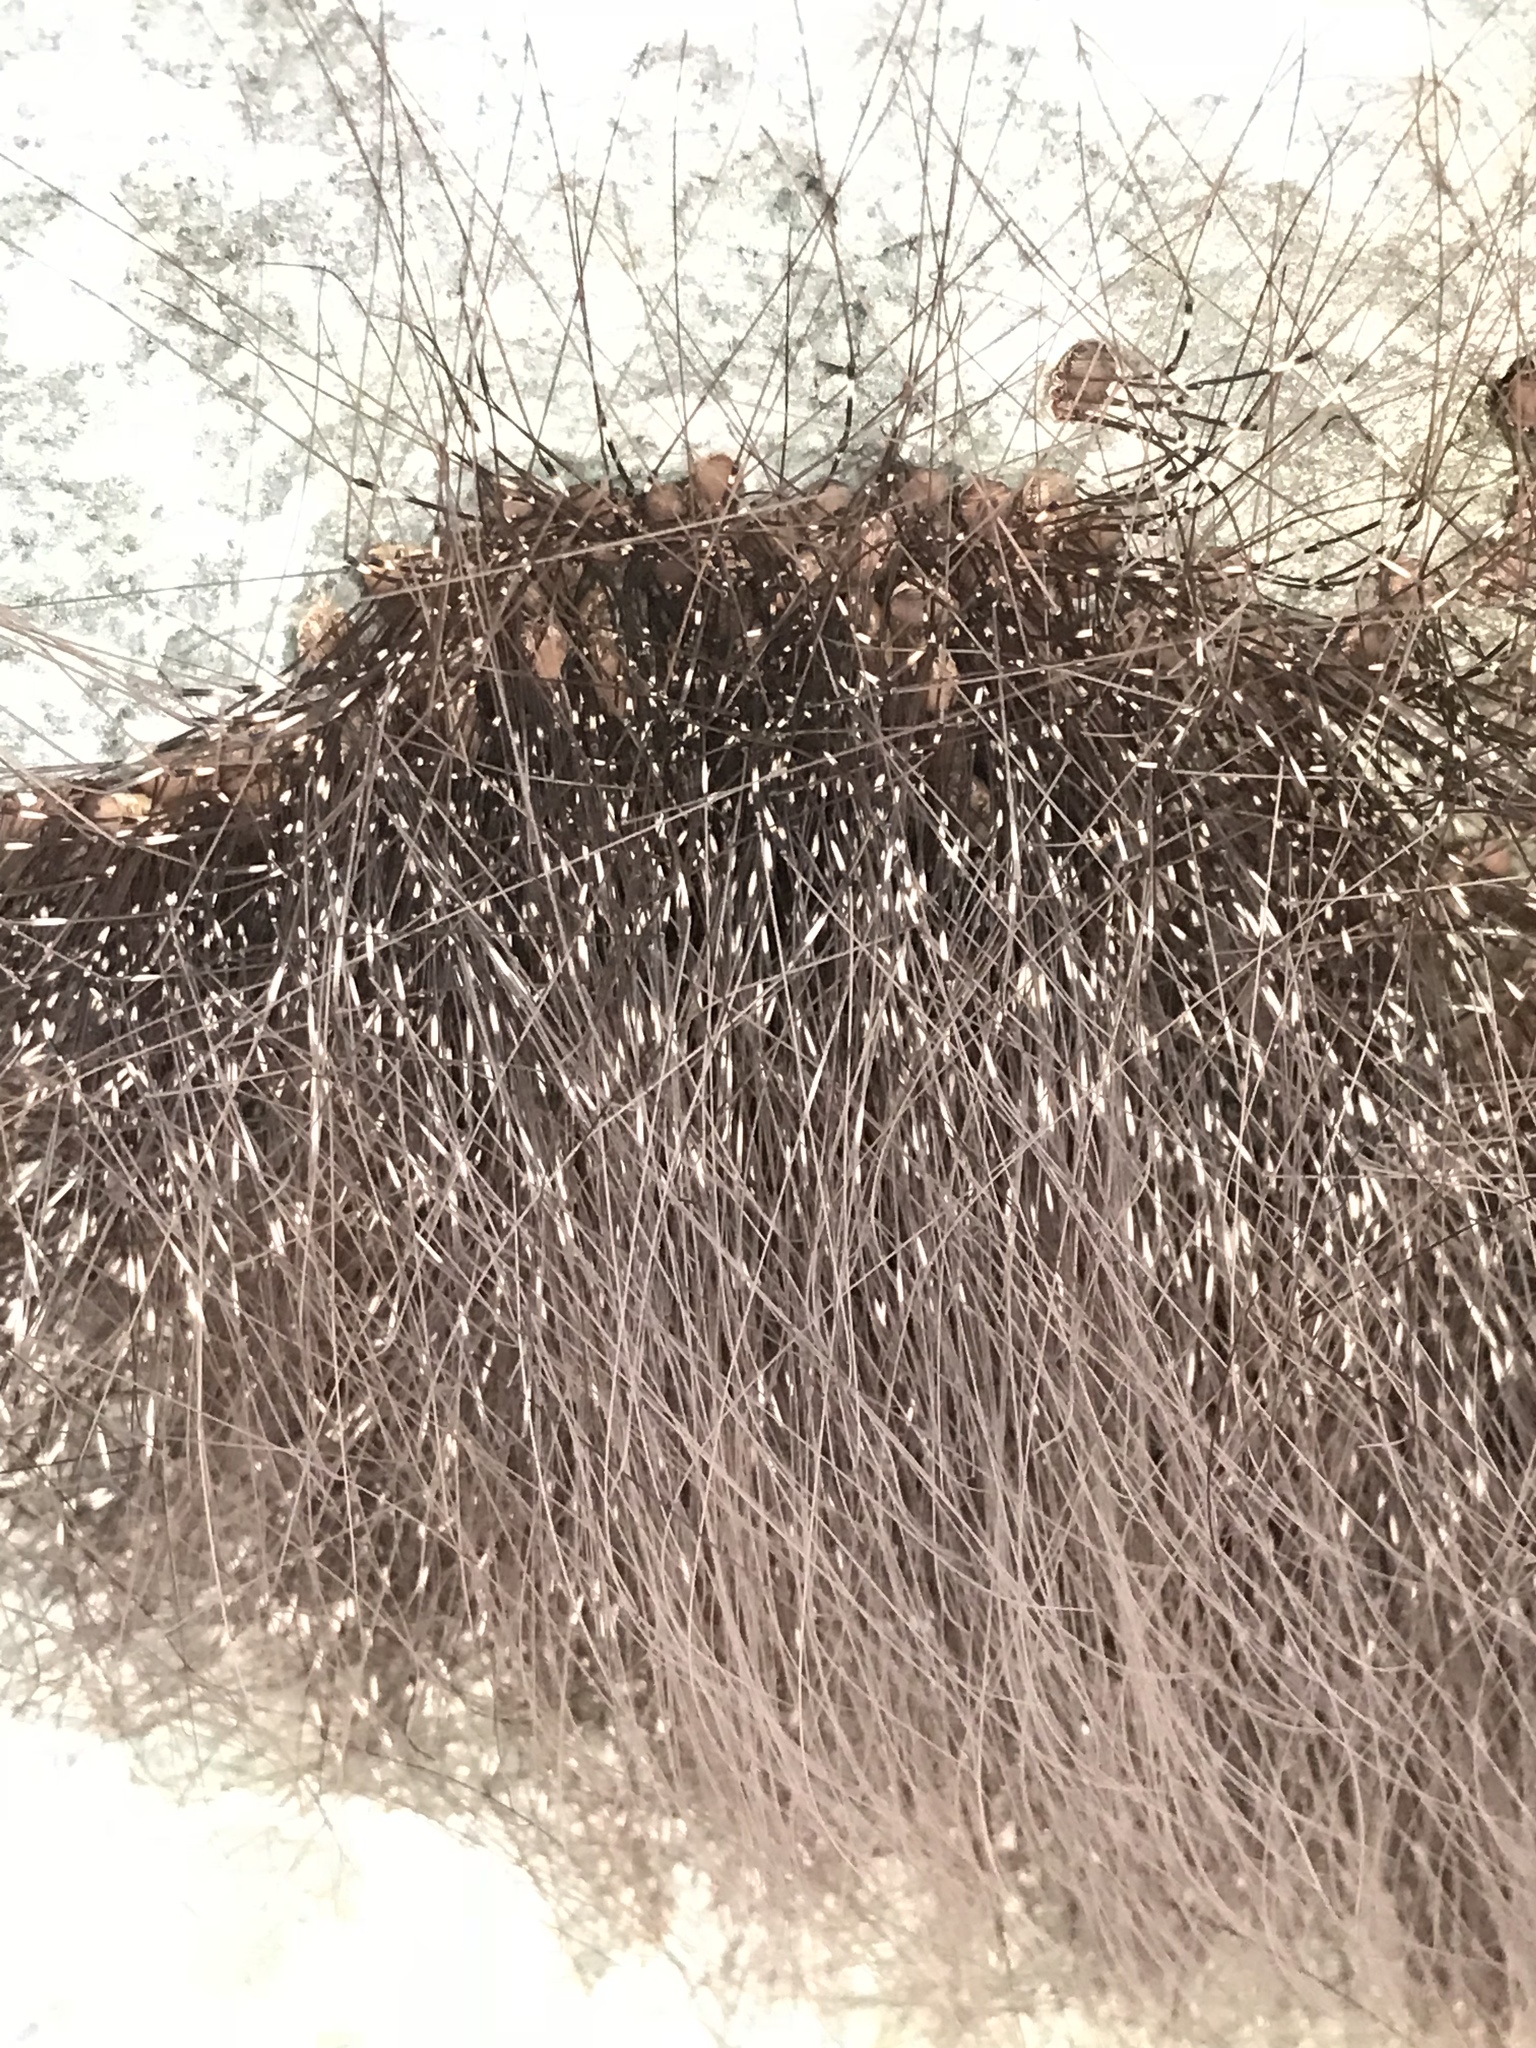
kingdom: Animalia
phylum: Arthropoda
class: Arachnida
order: Opiliones
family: Sclerosomatidae
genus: Leiobunum
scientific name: Leiobunum townsendi
